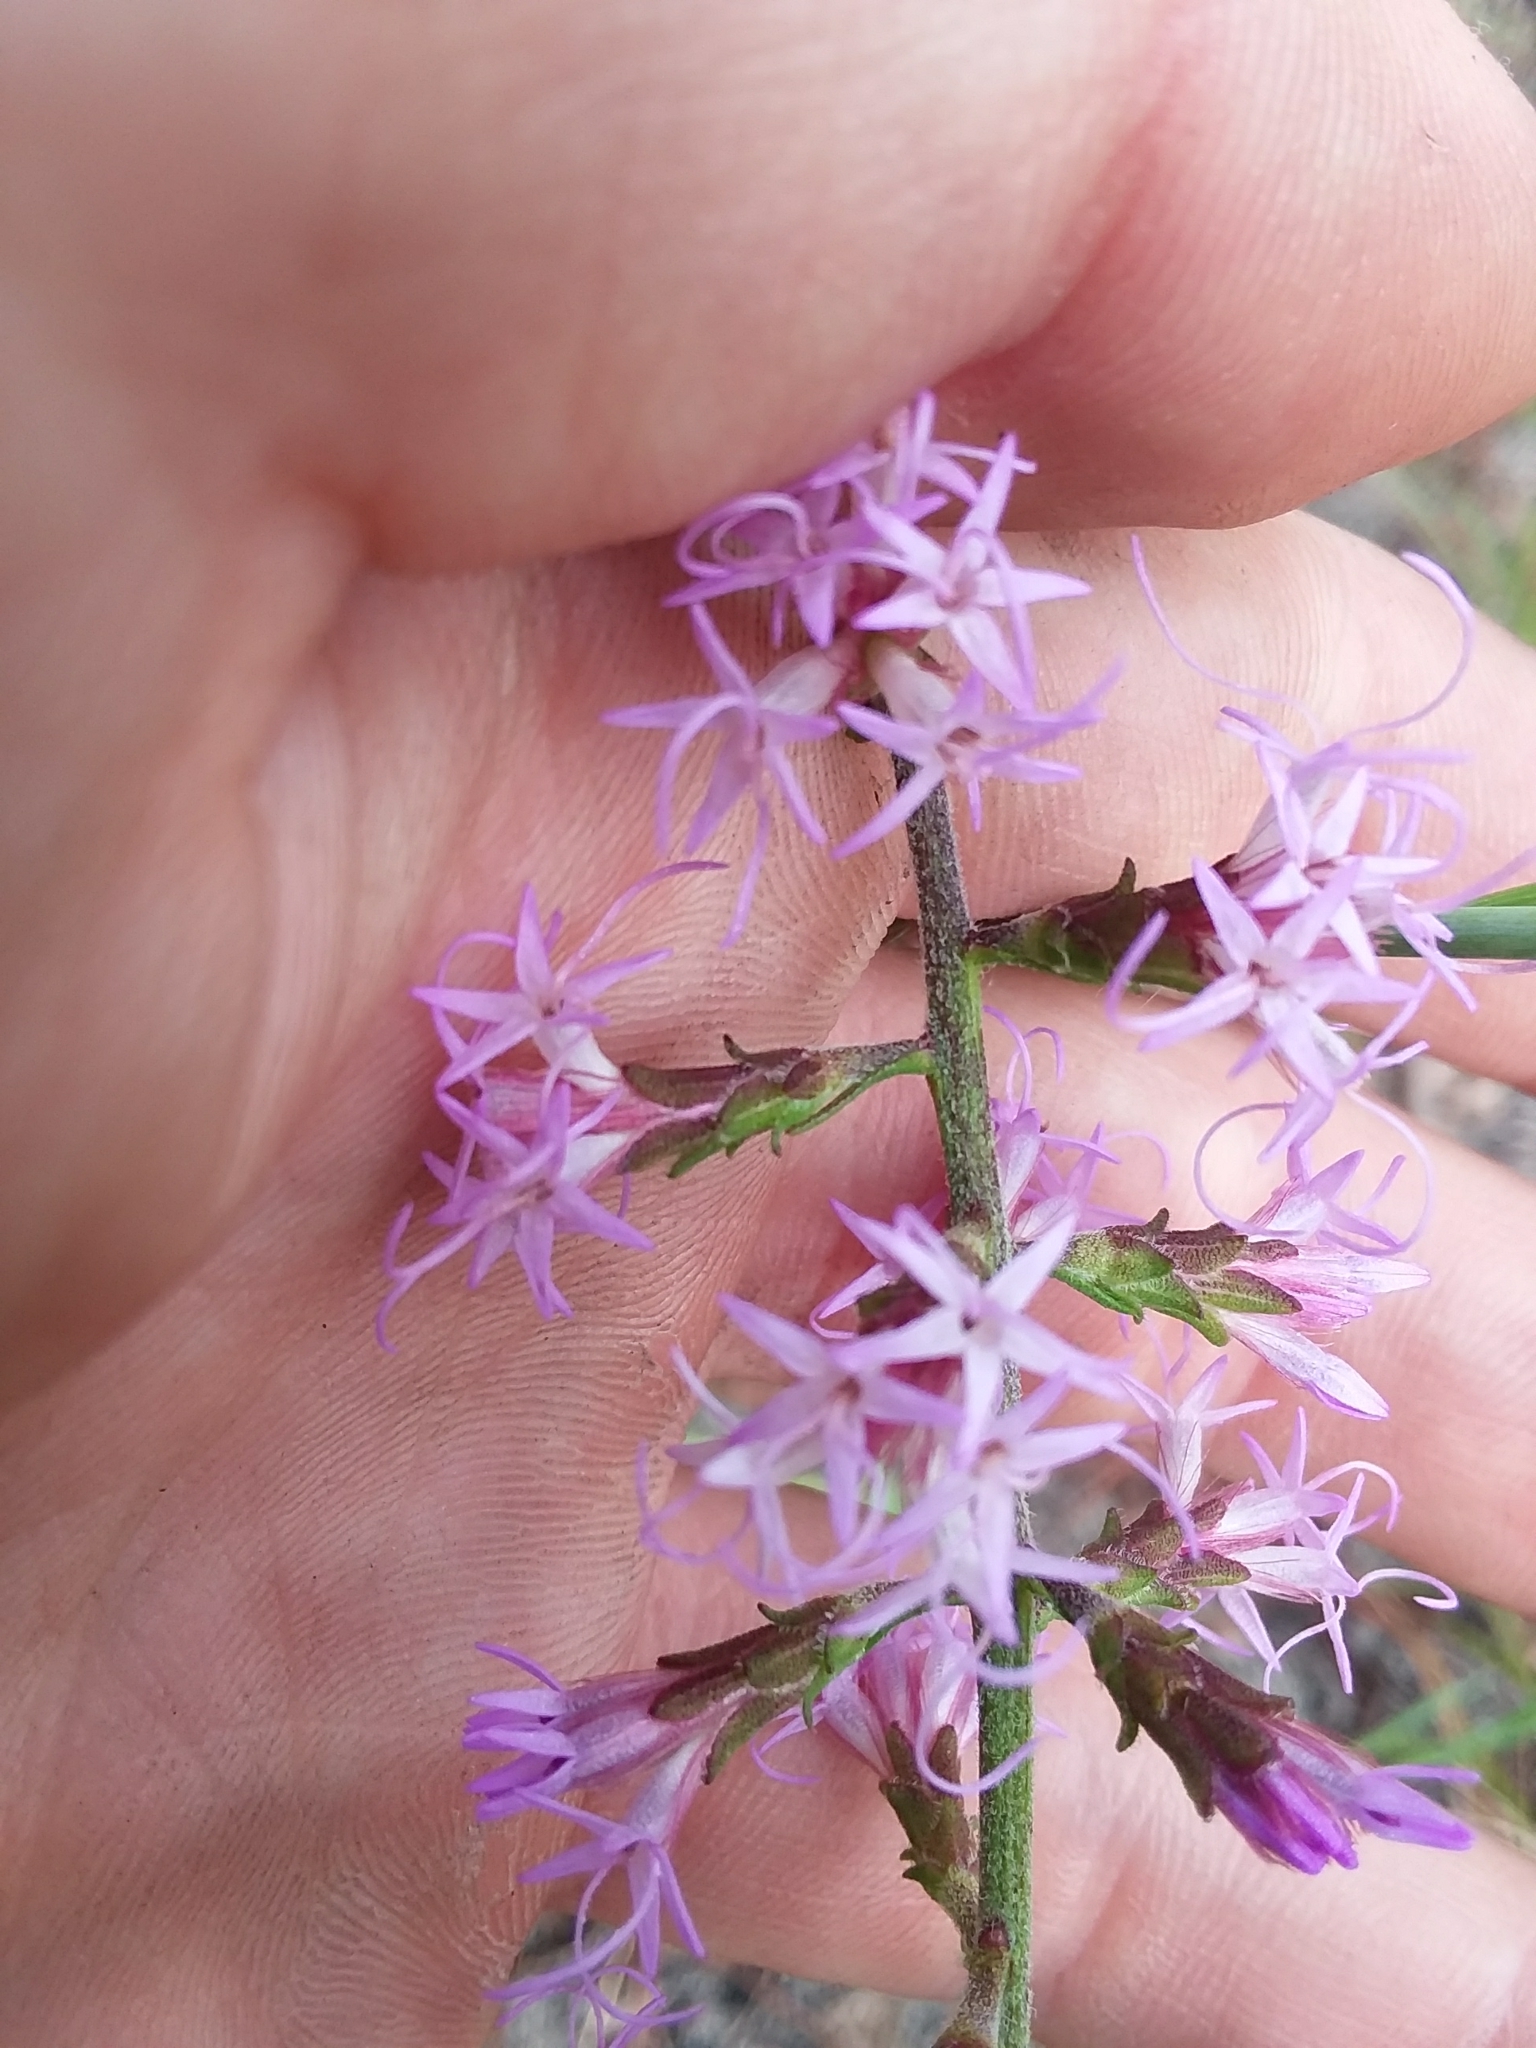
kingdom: Plantae
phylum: Tracheophyta
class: Magnoliopsida
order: Asterales
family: Asteraceae
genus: Liatris
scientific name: Liatris gracilis
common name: Slender gayfeather
